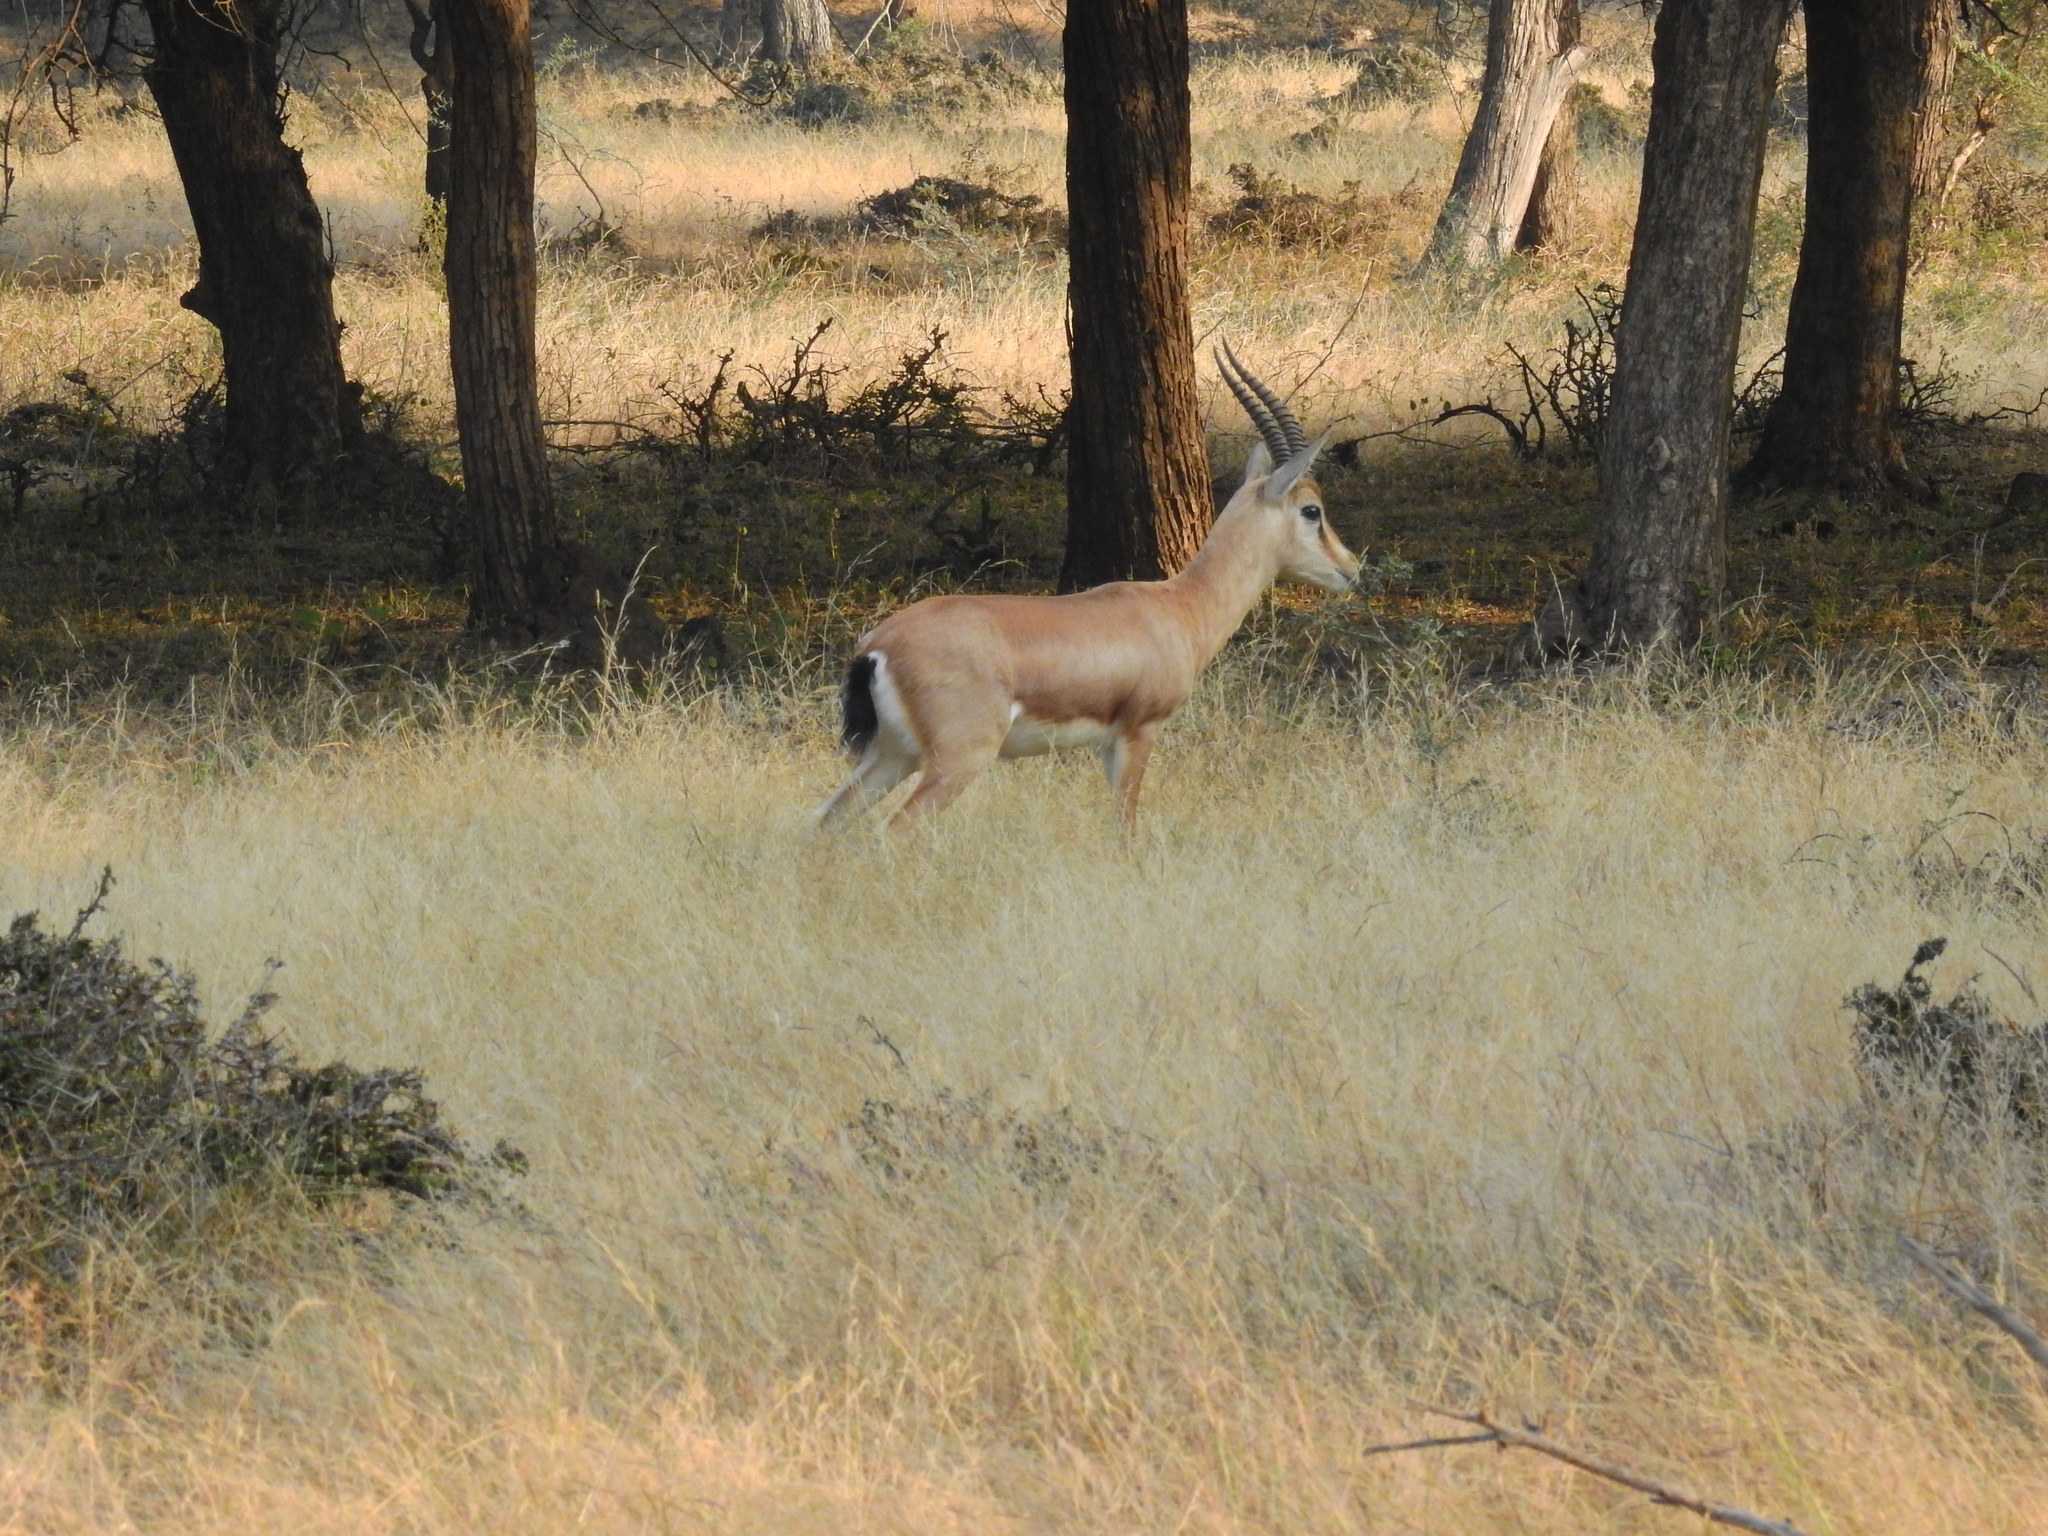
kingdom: Animalia
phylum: Chordata
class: Mammalia
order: Artiodactyla
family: Bovidae
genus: Gazella
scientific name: Gazella bennettii
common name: Indian gazelle
